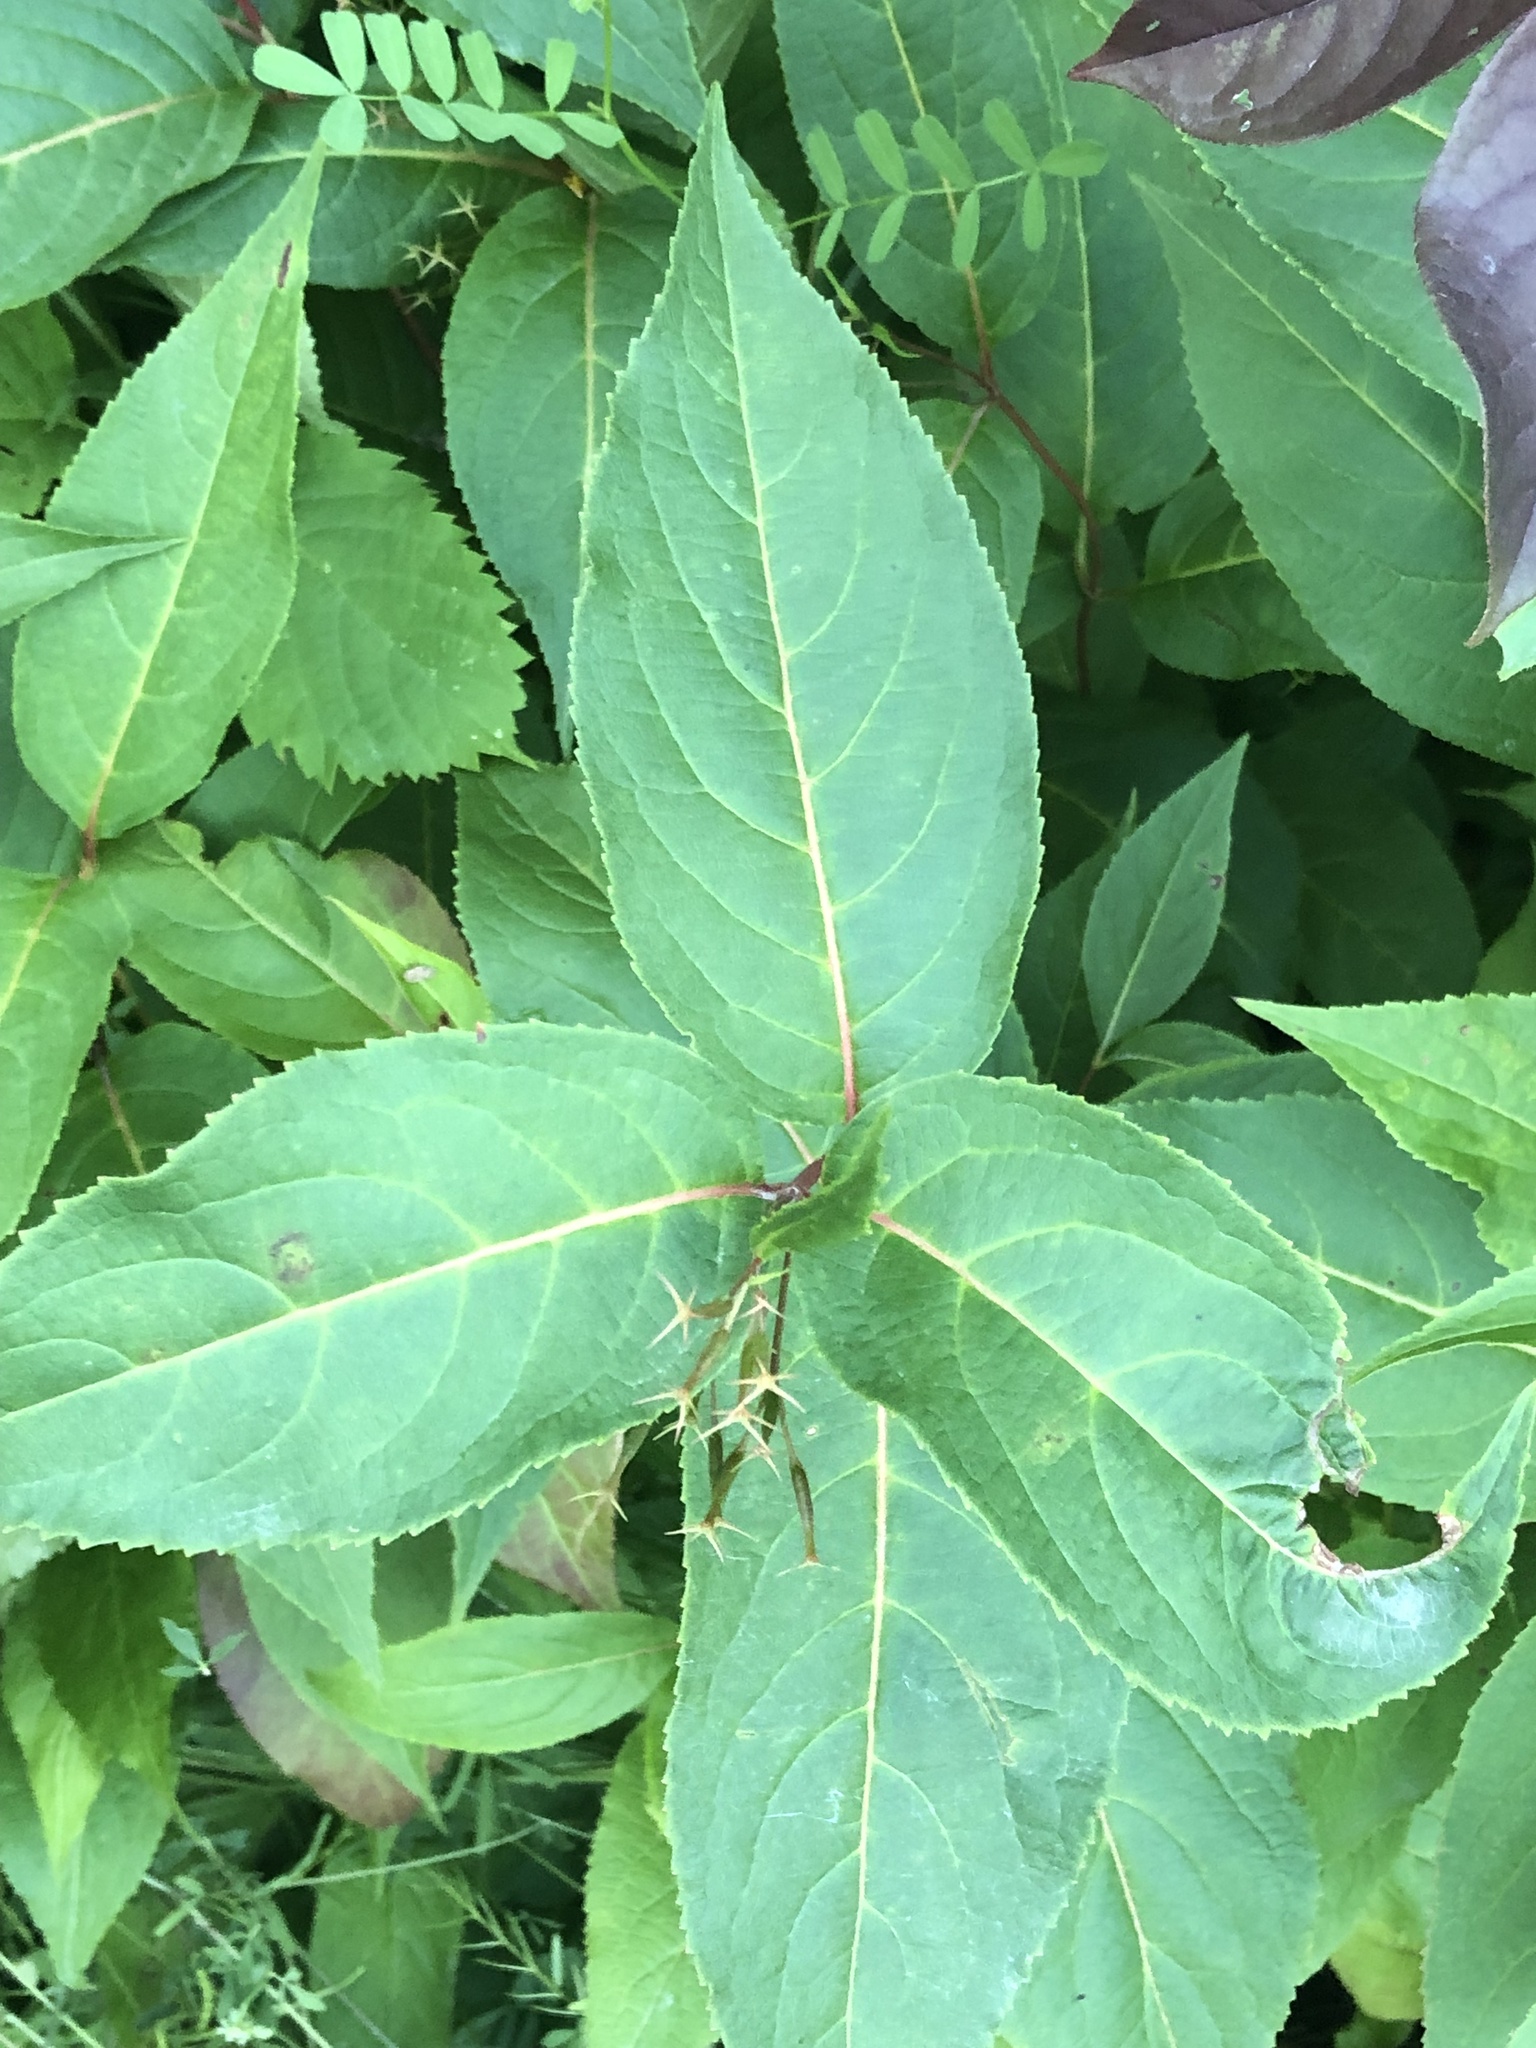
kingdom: Plantae
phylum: Tracheophyta
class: Magnoliopsida
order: Dipsacales
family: Caprifoliaceae
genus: Diervilla
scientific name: Diervilla lonicera
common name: Bush-honeysuckle
